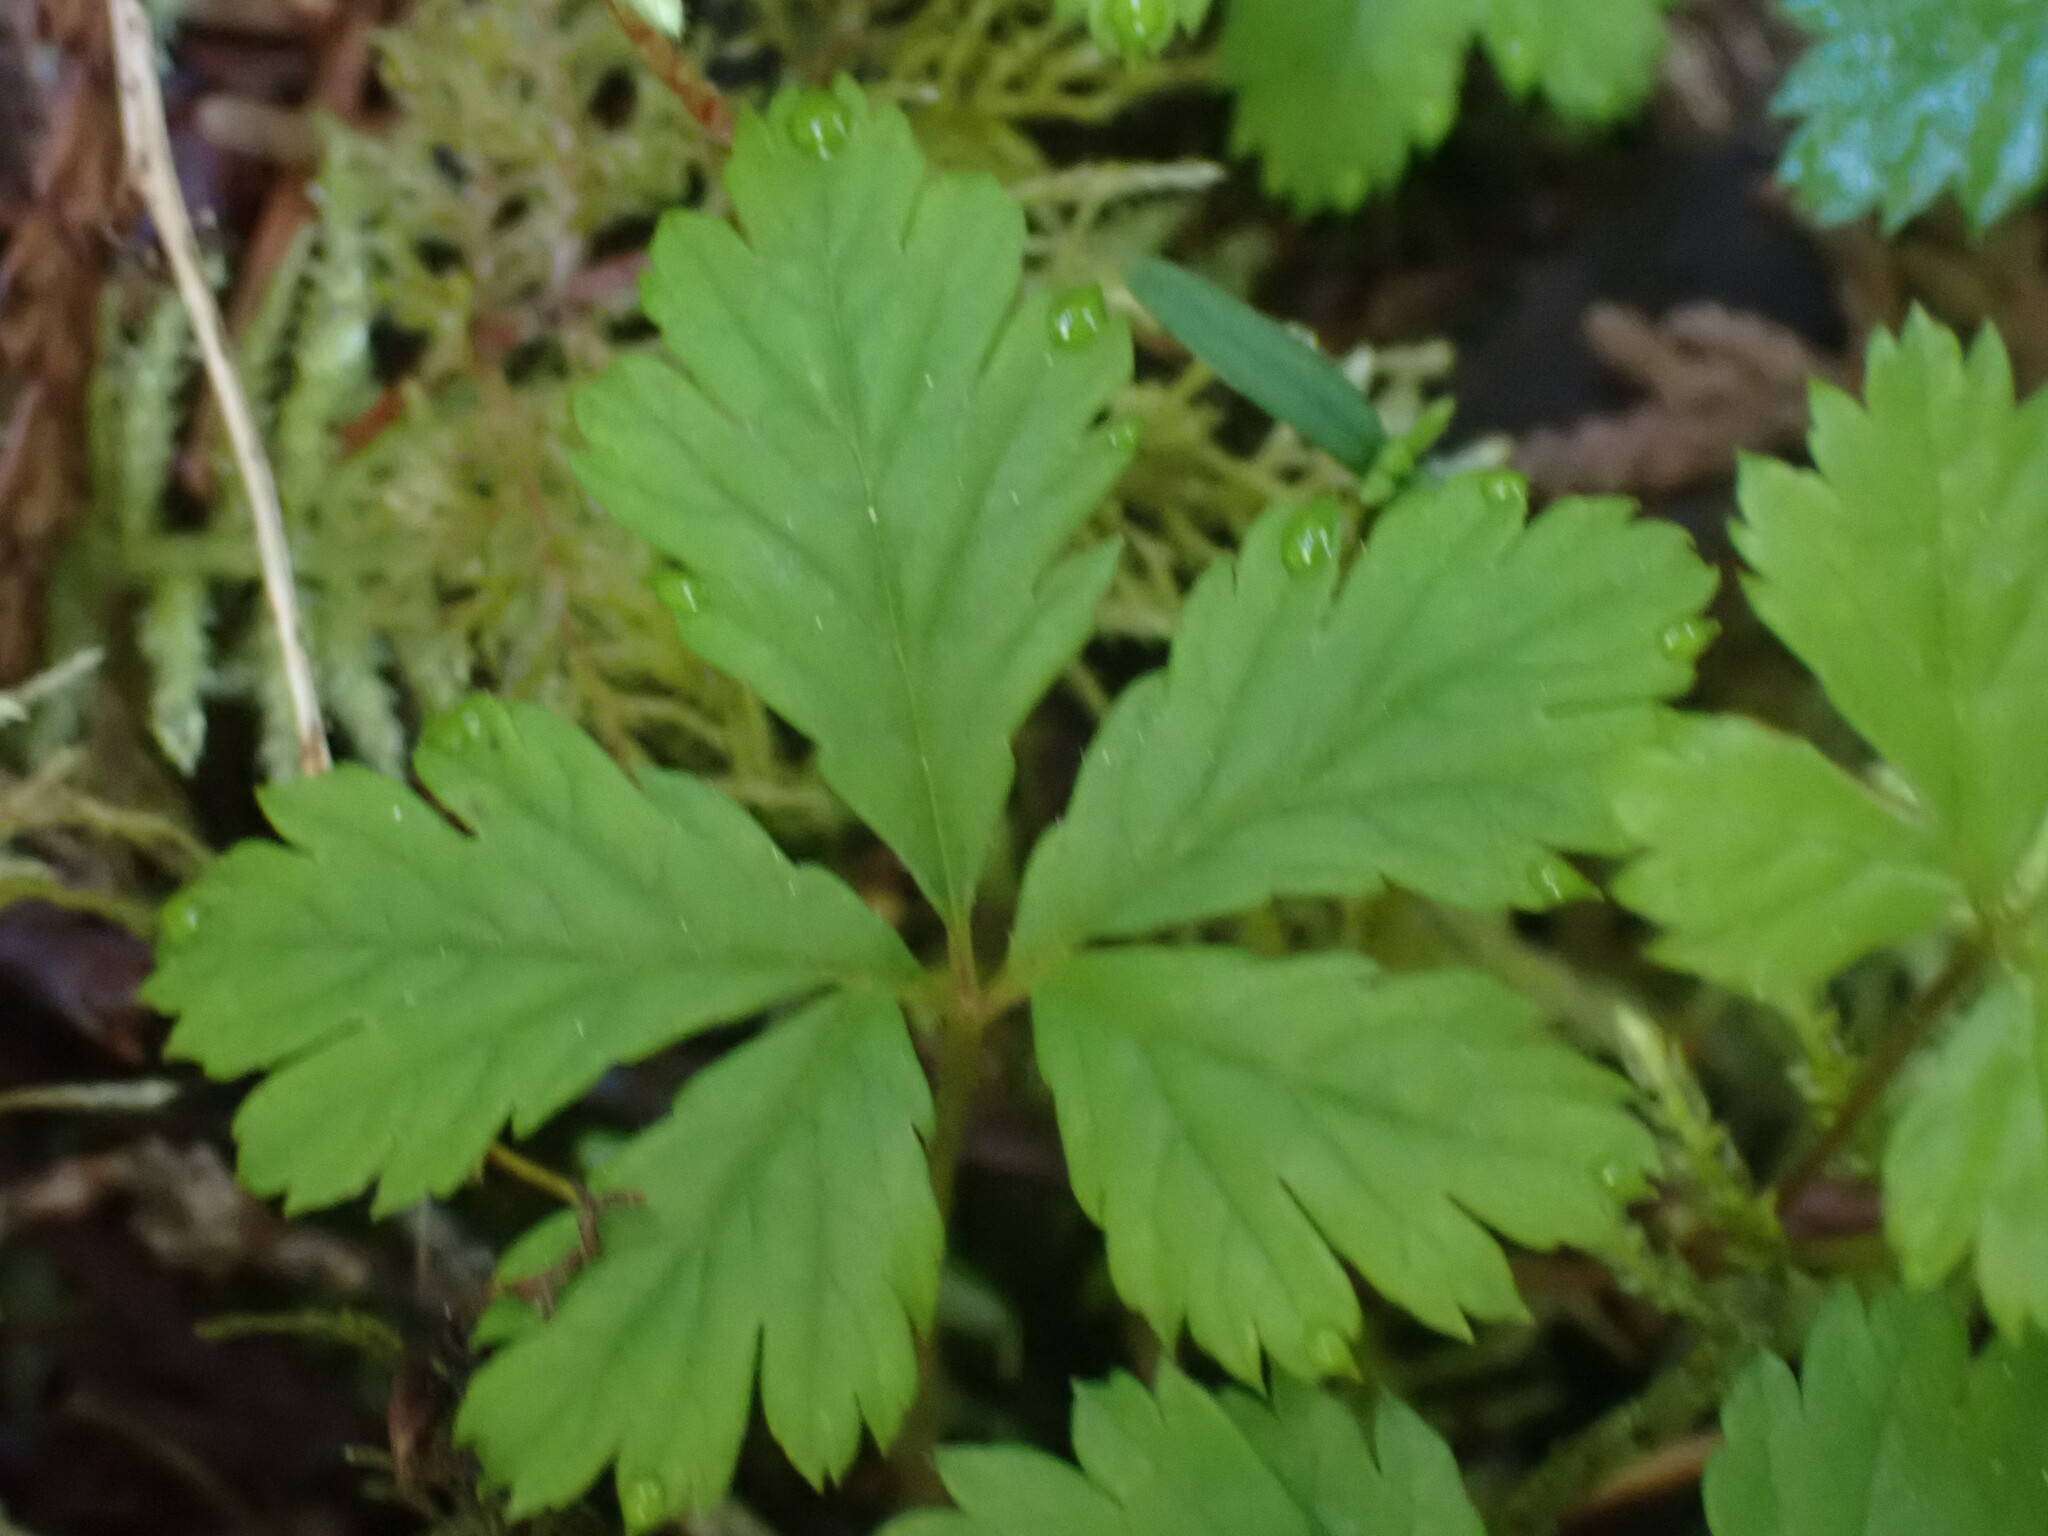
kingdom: Plantae
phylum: Tracheophyta
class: Magnoliopsida
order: Rosales
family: Rosaceae
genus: Rubus
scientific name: Rubus pedatus
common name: Creeping raspberry
